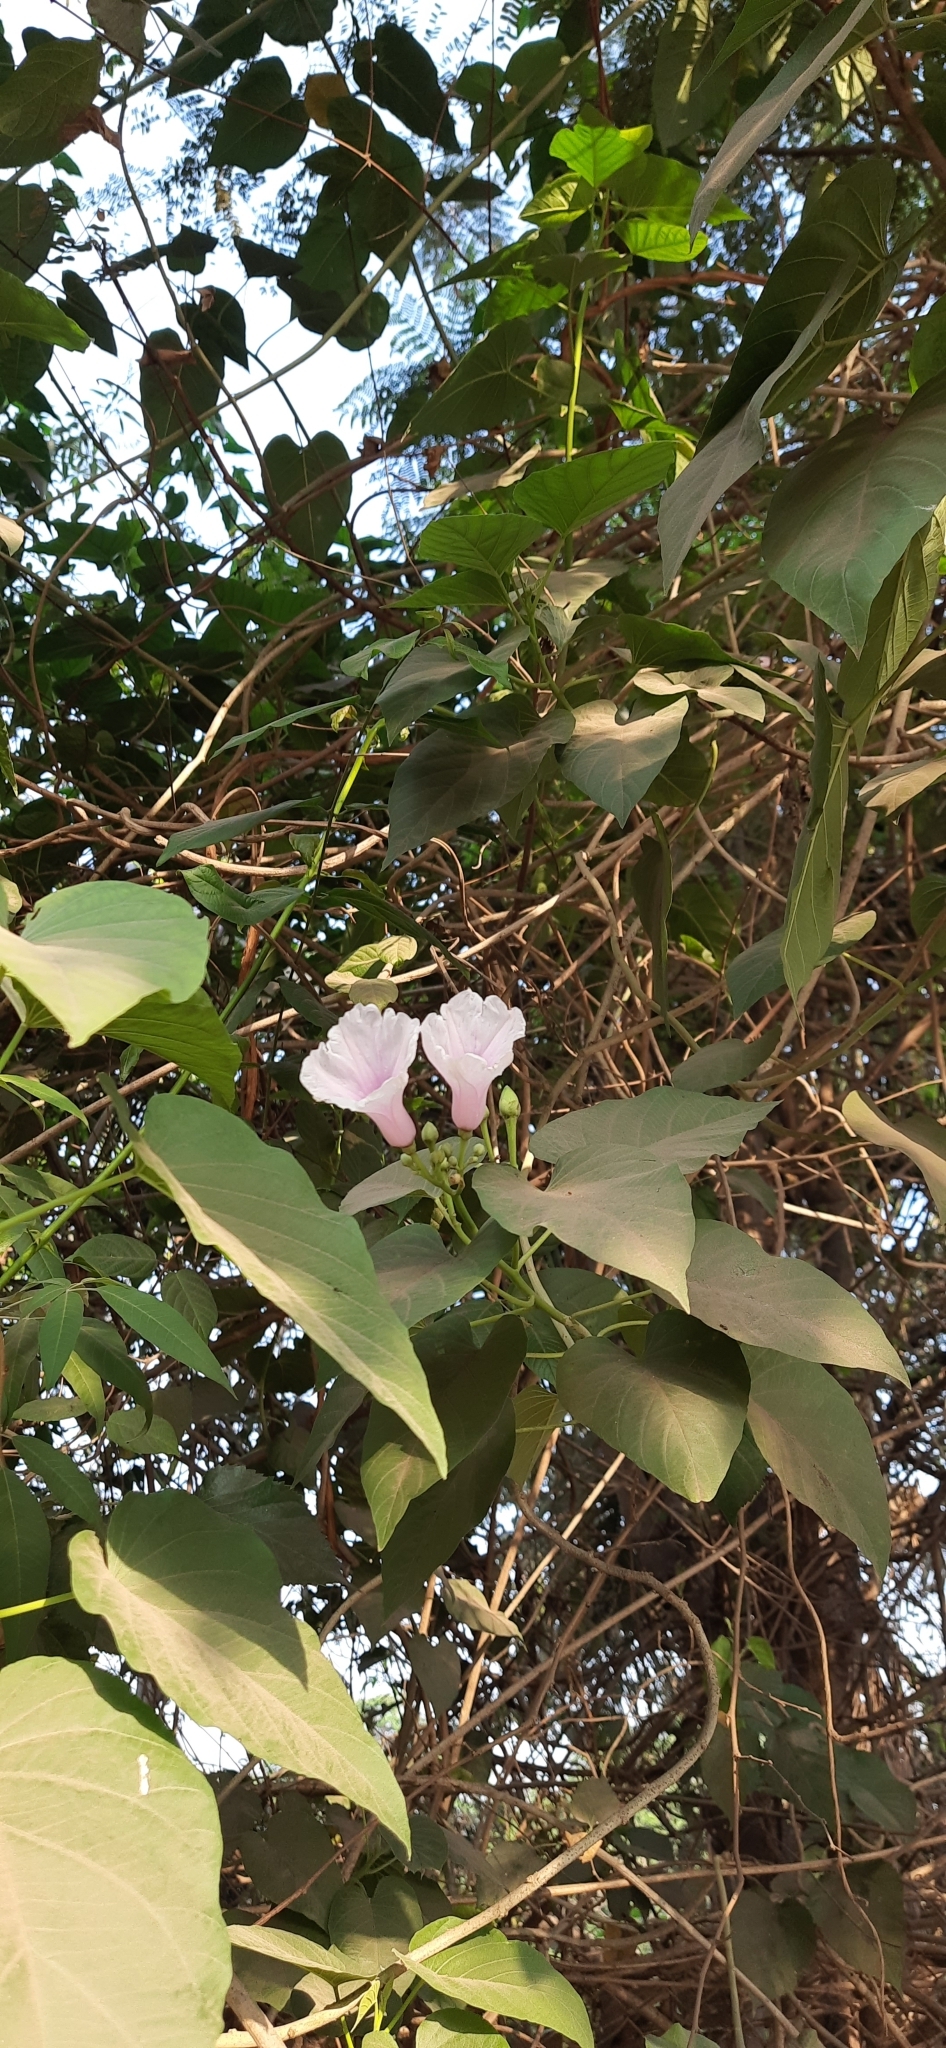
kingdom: Plantae
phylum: Tracheophyta
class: Magnoliopsida
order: Solanales
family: Convolvulaceae
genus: Ipomoea
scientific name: Ipomoea carnea
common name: Morning-glory
